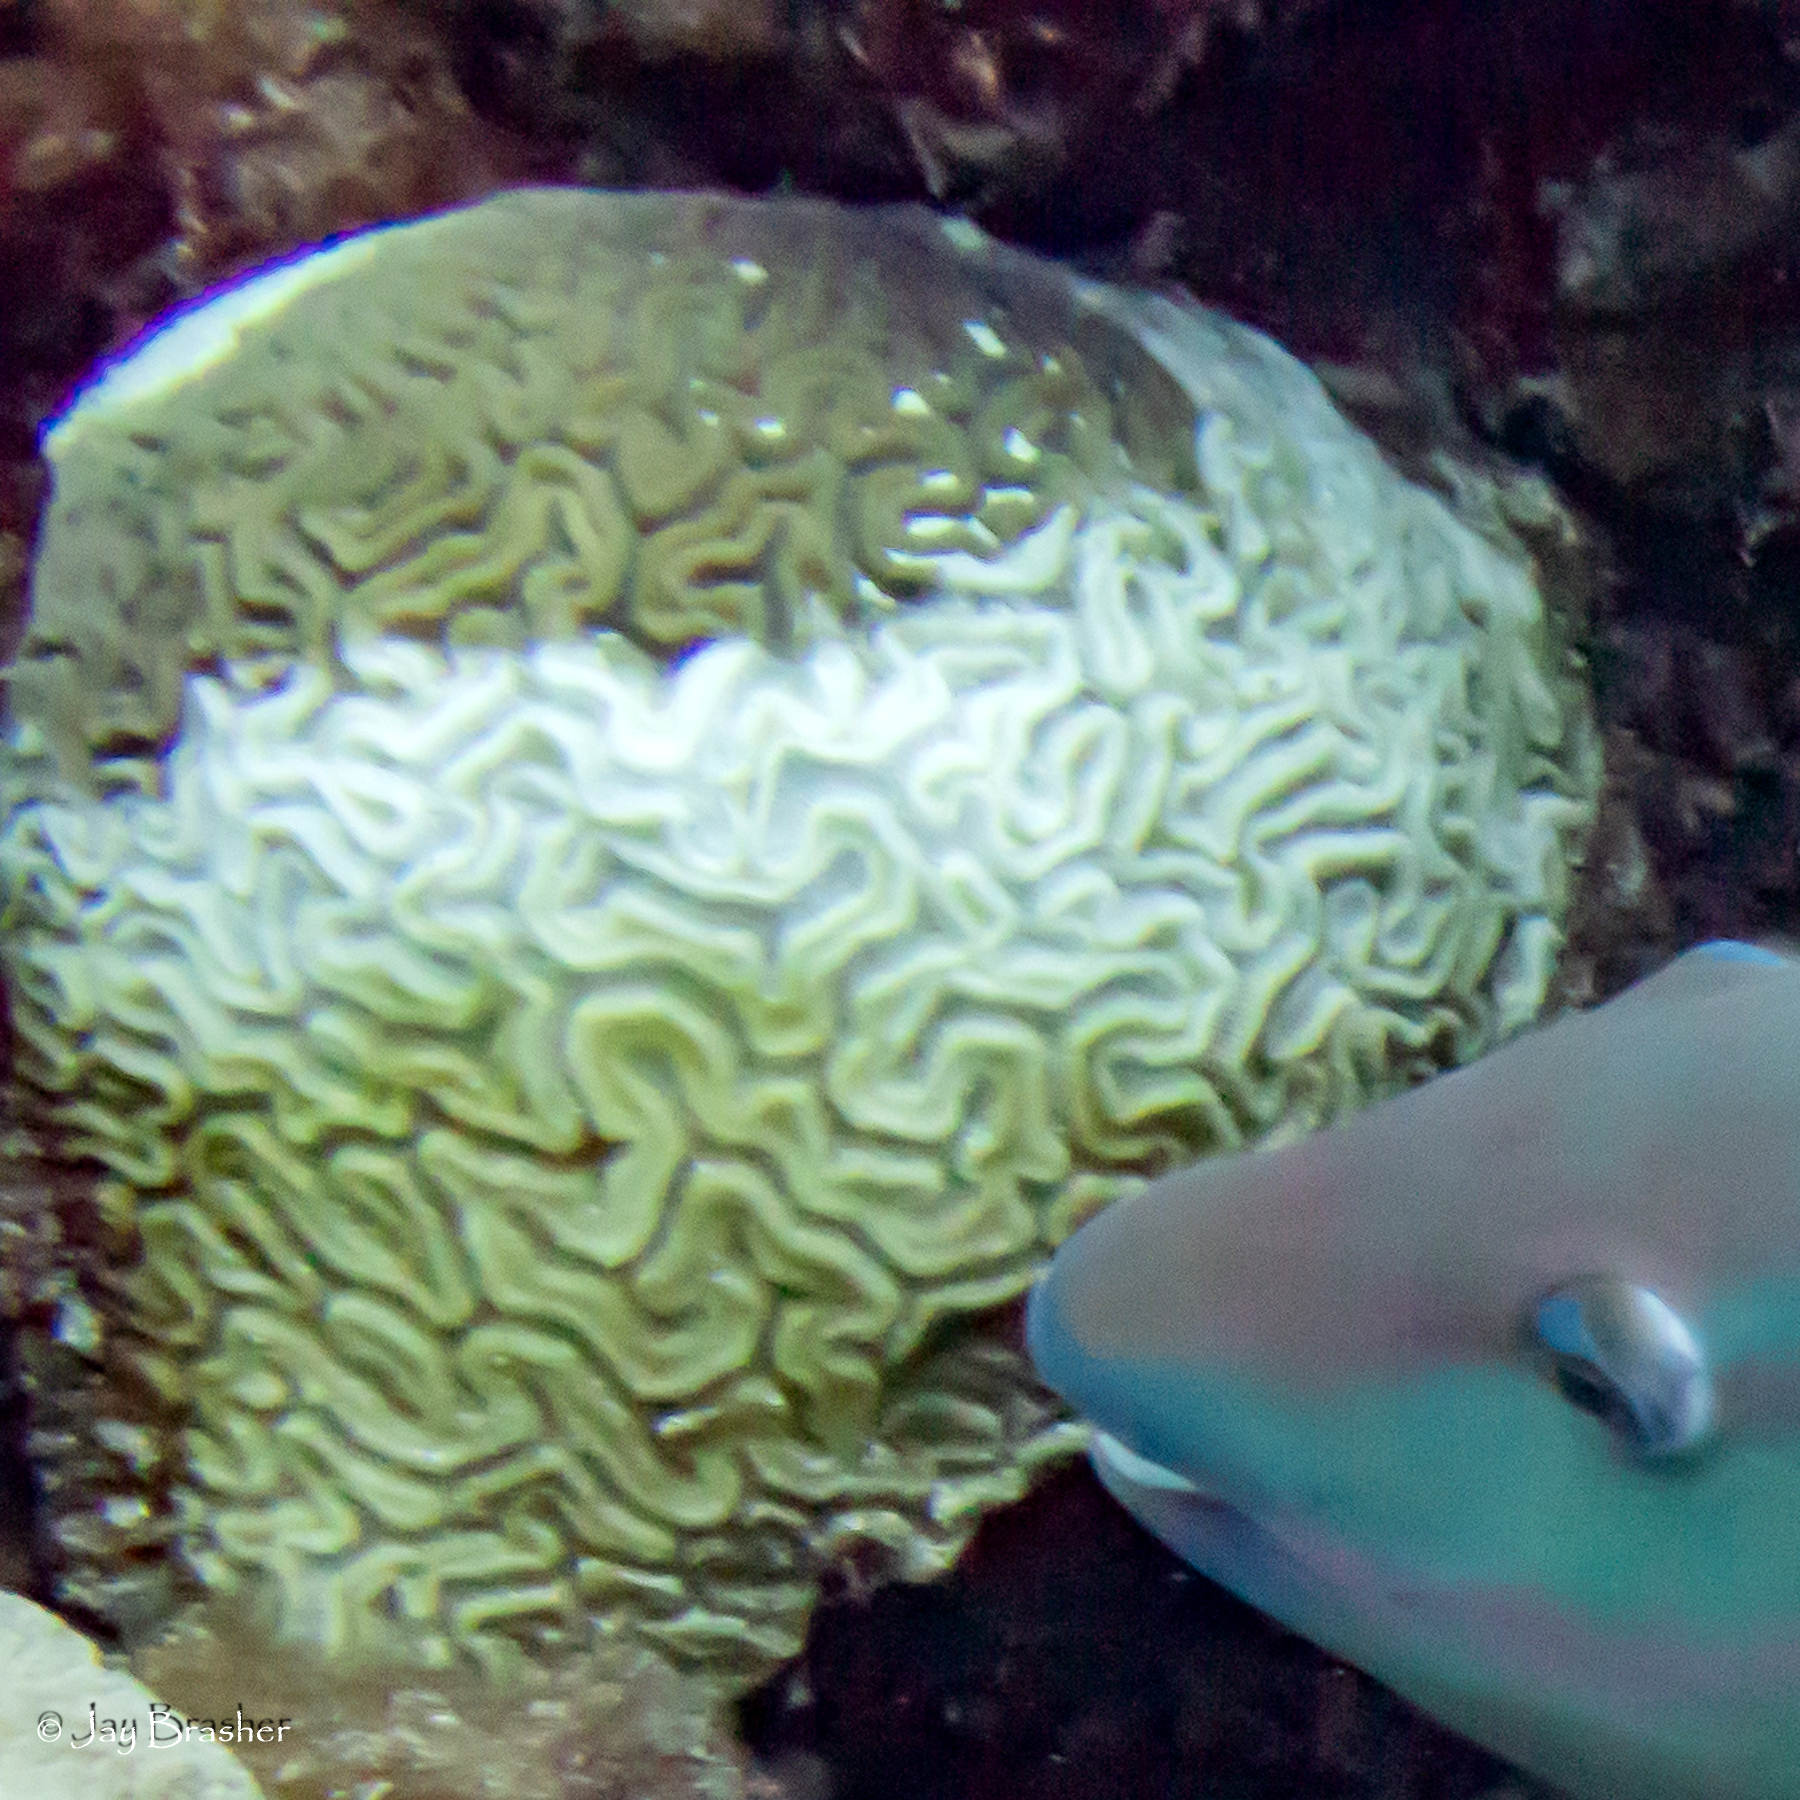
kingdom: Animalia
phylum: Cnidaria
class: Anthozoa
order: Scleractinia
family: Faviidae
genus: Diploria
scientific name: Diploria labyrinthiformis
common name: Grooved brain coral
